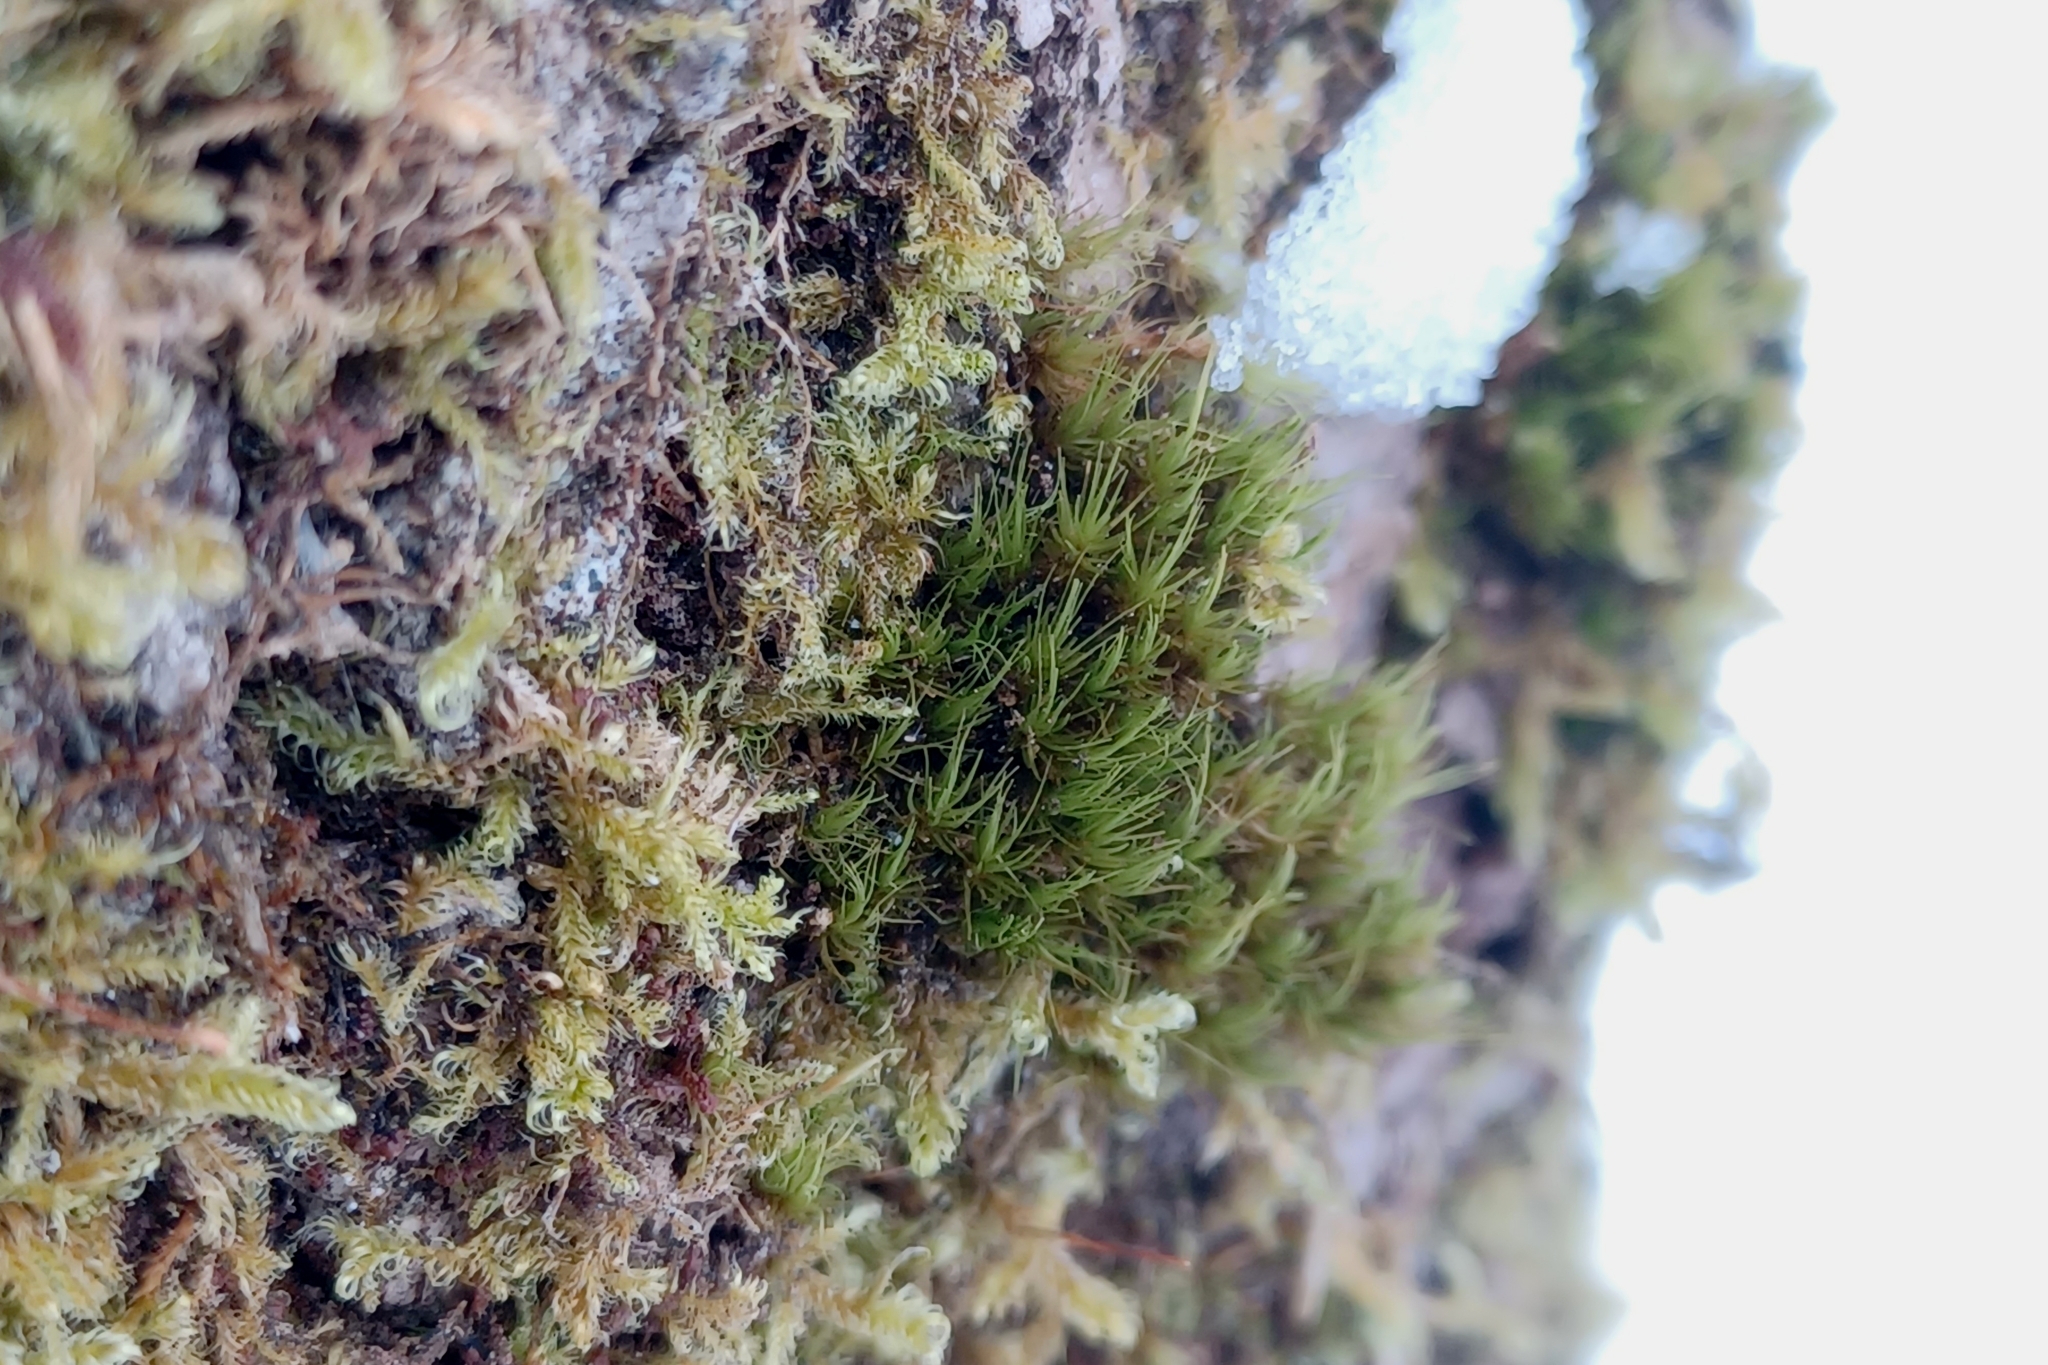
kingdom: Plantae
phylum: Bryophyta
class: Bryopsida
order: Dicranales
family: Dicranaceae
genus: Dicranum
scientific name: Dicranum viride
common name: Green broom moss
